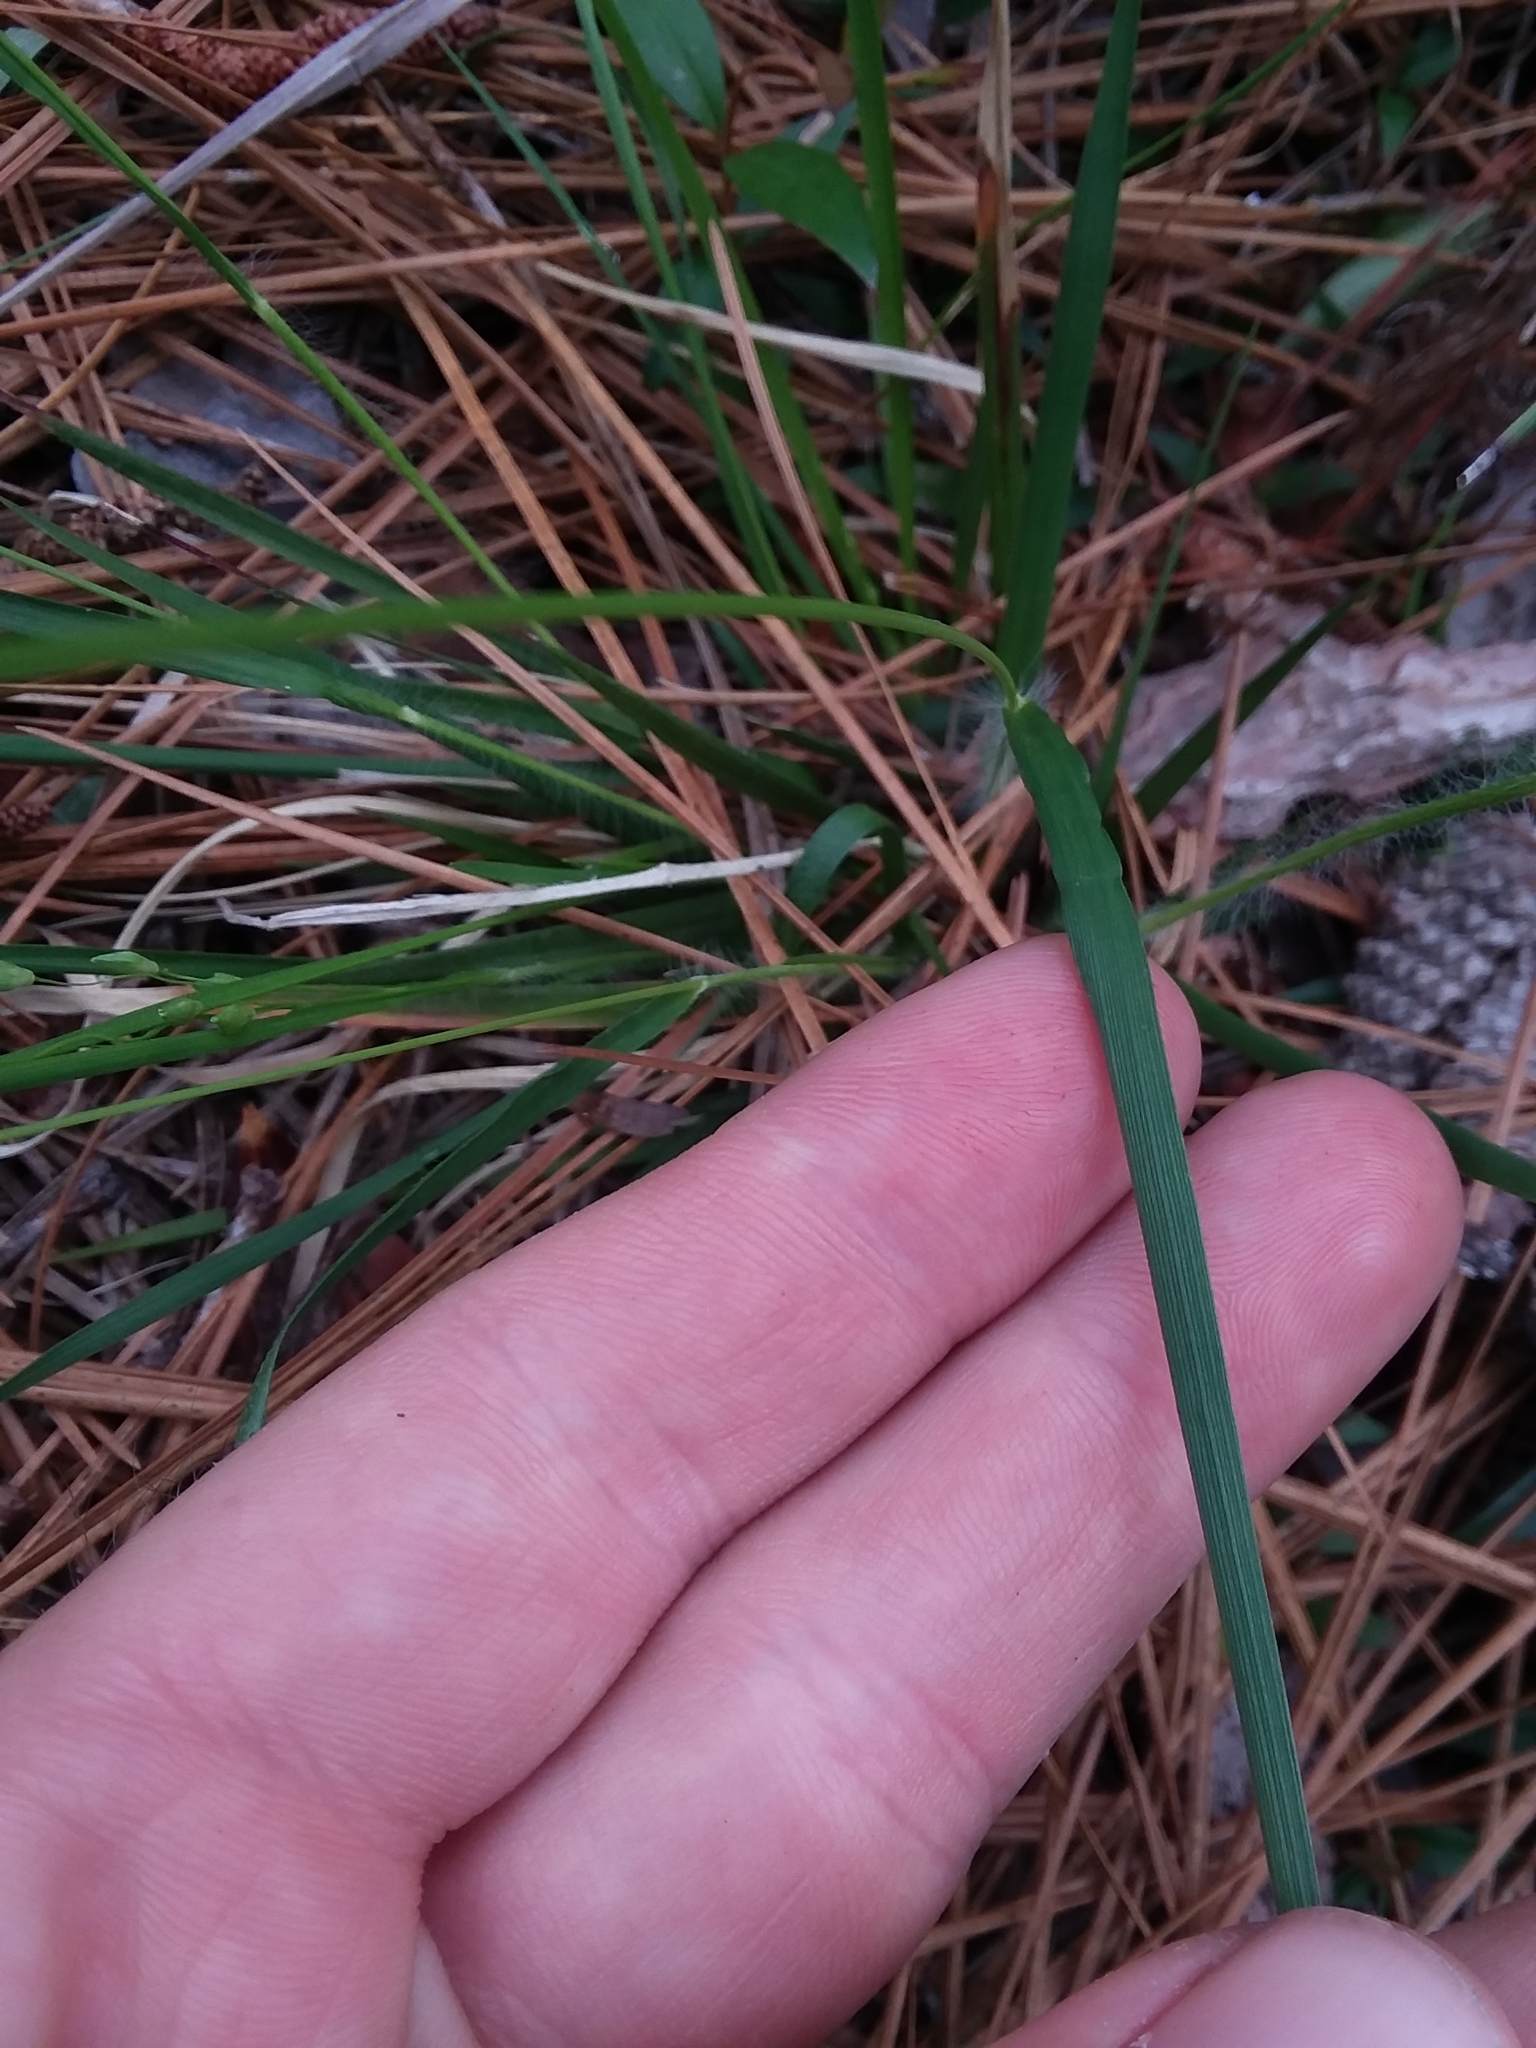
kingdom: Plantae
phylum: Tracheophyta
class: Liliopsida
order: Poales
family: Poaceae
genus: Dichanthelium
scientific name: Dichanthelium depauperatum
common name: Depauperate panicgrass
